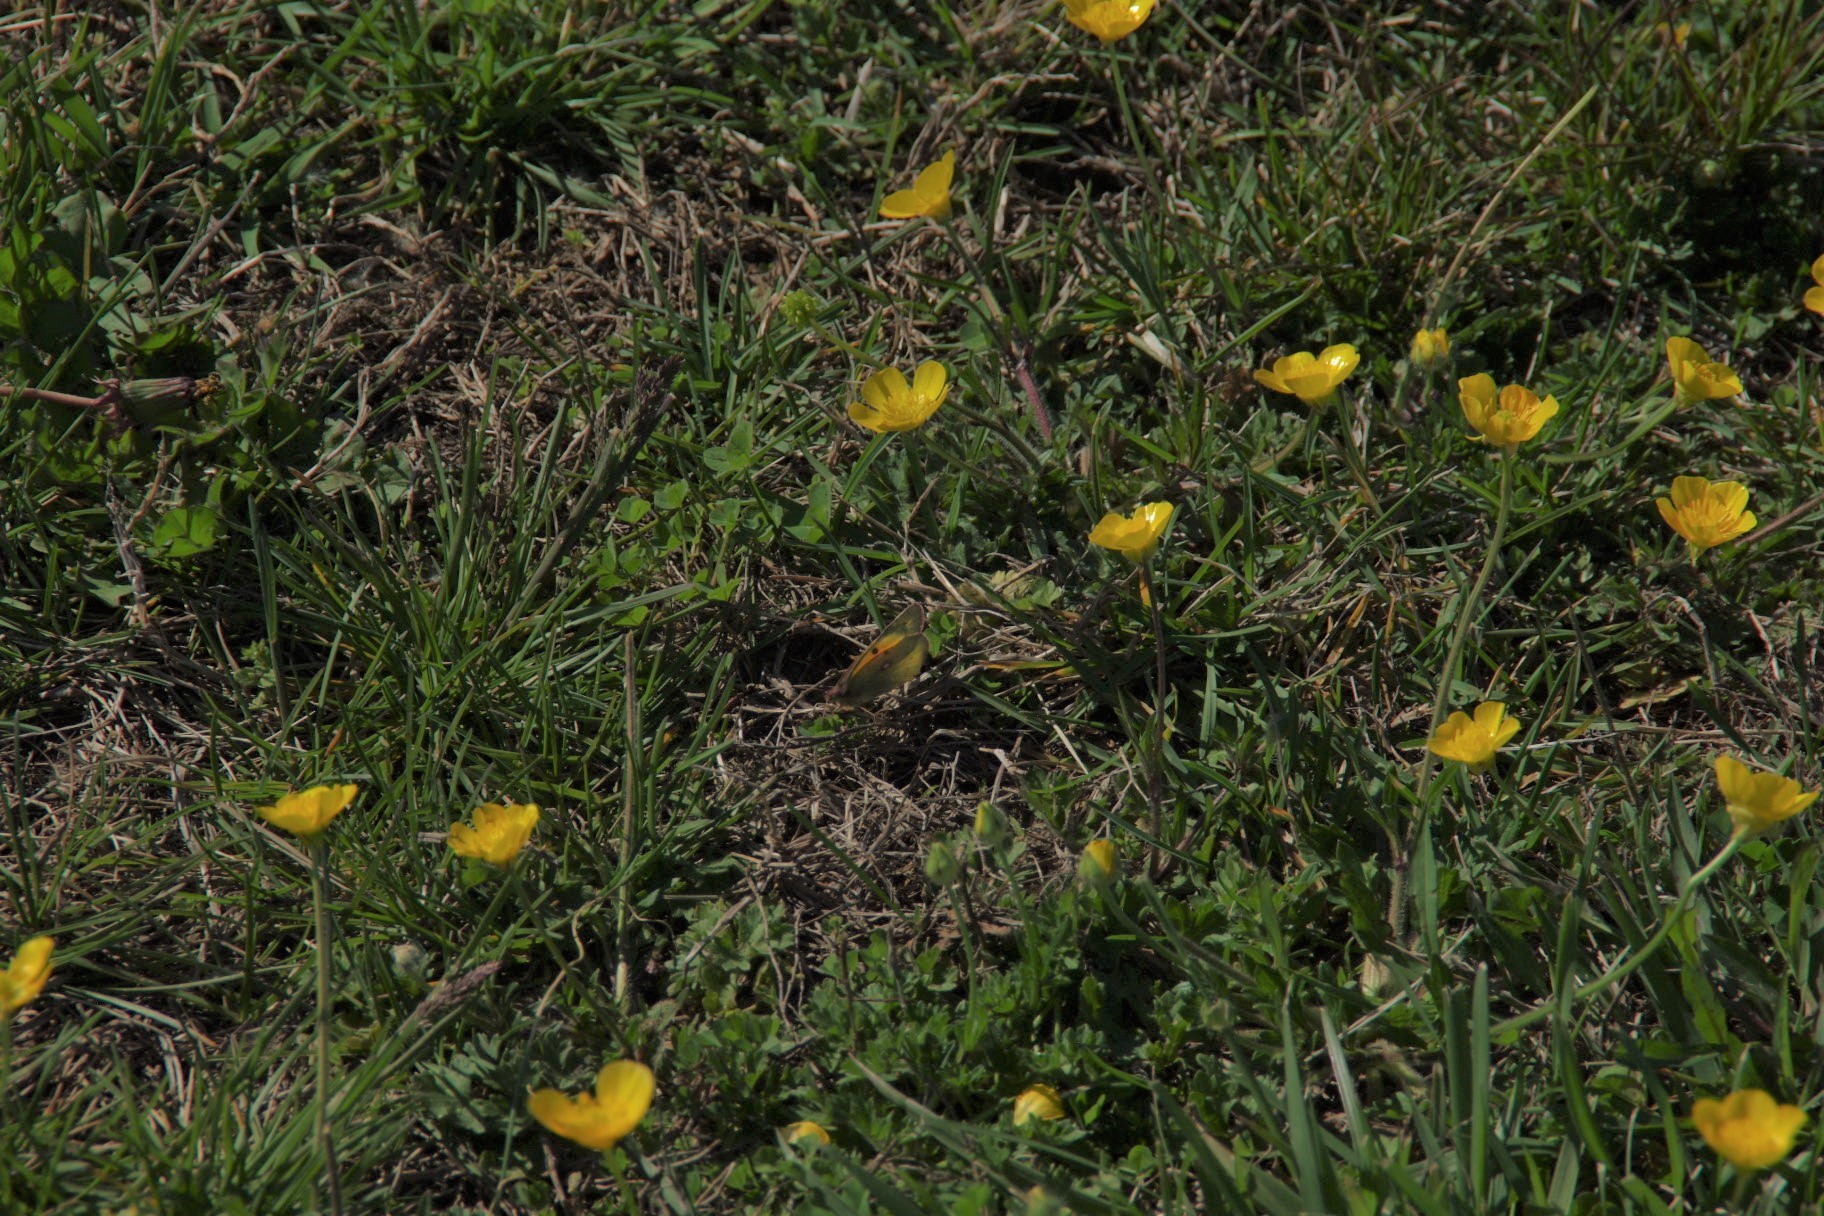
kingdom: Animalia
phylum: Arthropoda
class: Insecta
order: Lepidoptera
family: Pieridae
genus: Colias
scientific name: Colias eurytheme
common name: Alfalfa butterfly
